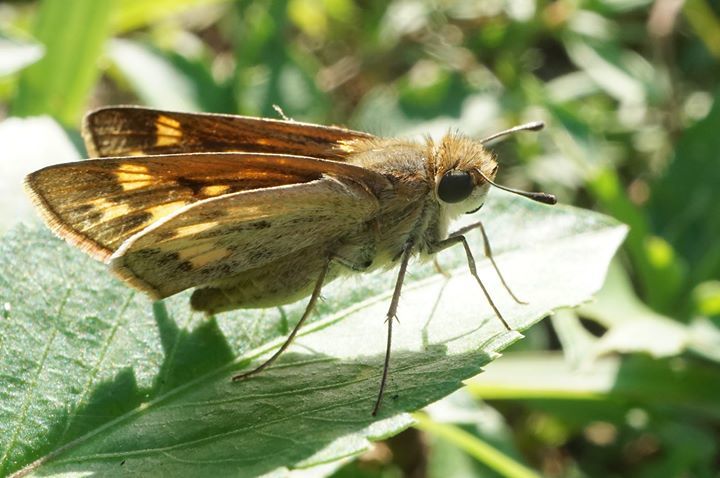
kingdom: Animalia
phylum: Arthropoda
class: Insecta
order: Lepidoptera
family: Hesperiidae
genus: Hylephila
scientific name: Hylephila phyleus
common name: Fiery skipper
